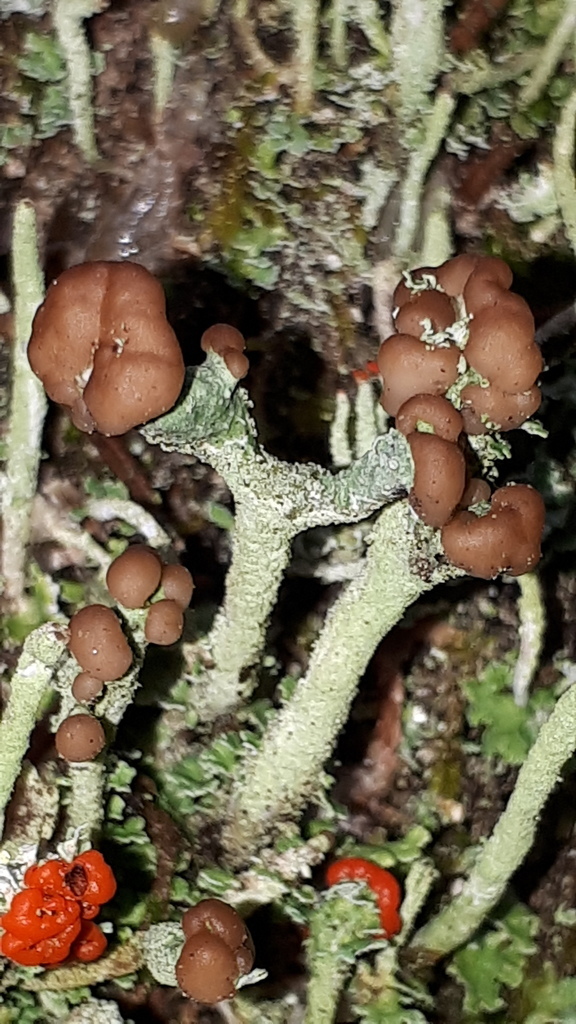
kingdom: Fungi
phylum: Ascomycota
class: Lecanoromycetes
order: Lecanorales
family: Cladoniaceae
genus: Cladonia
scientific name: Cladonia ochrochlora
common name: Smooth-footed powderhorn
